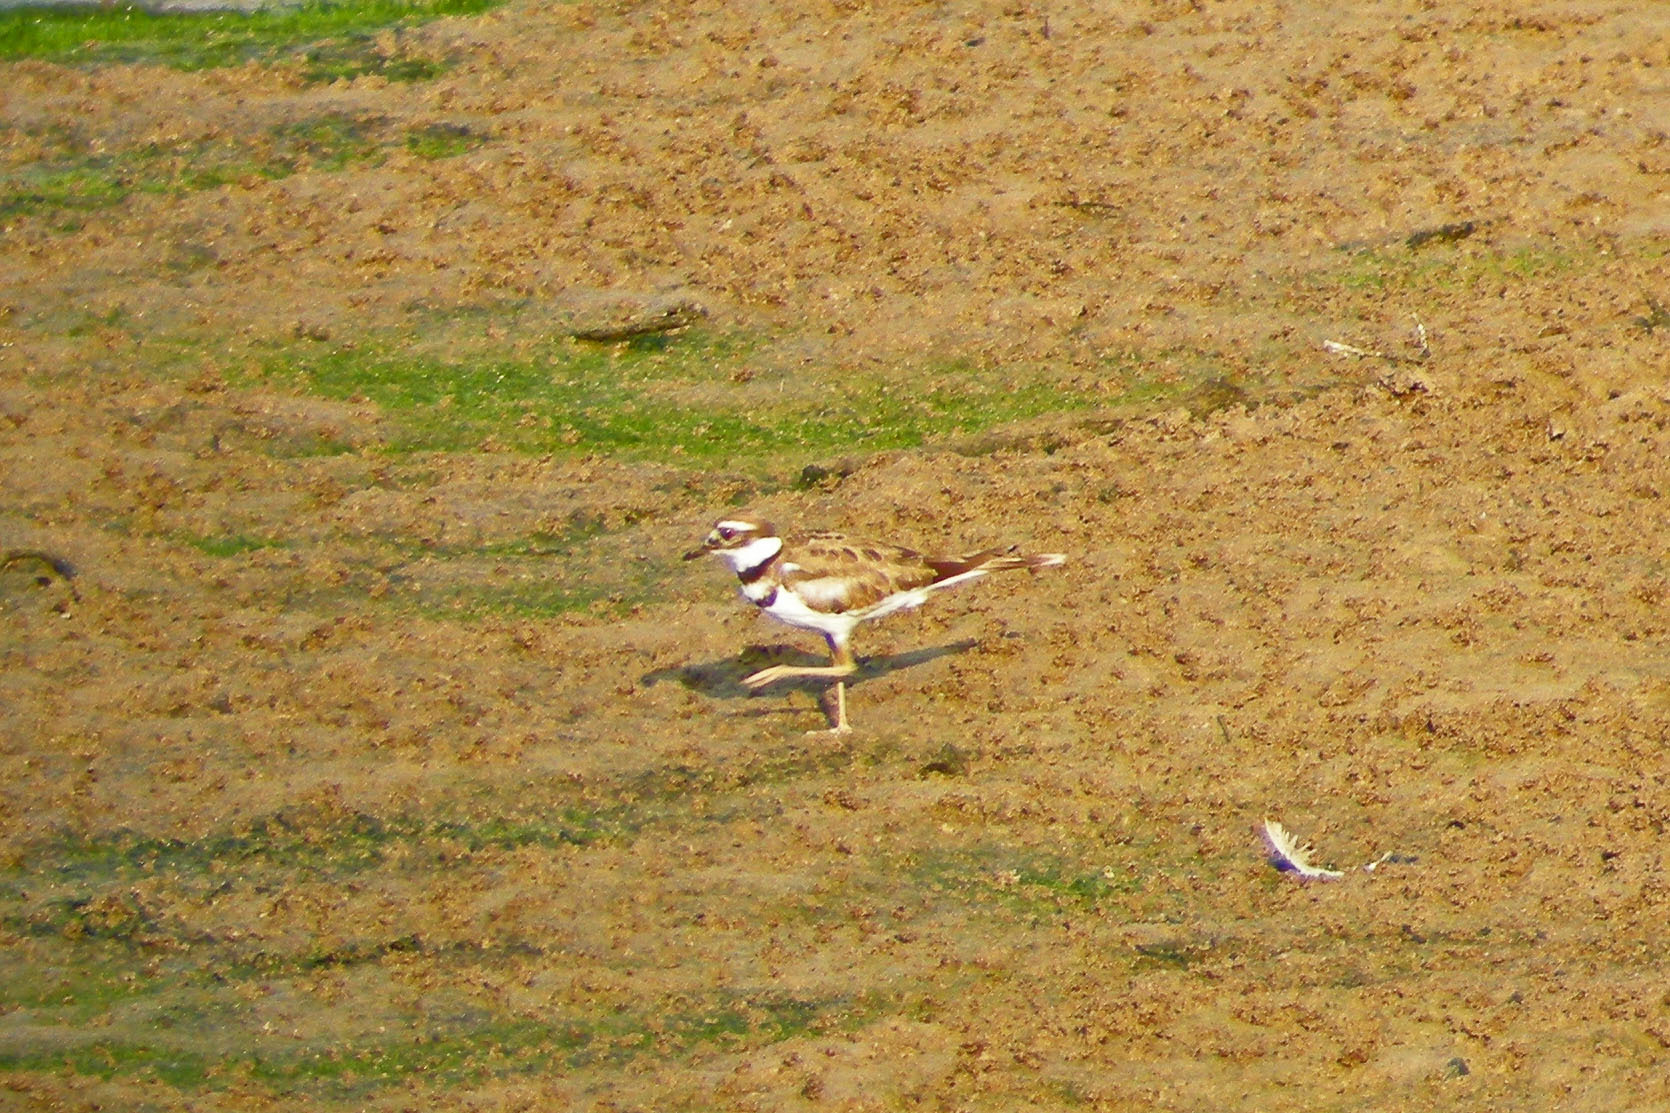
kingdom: Animalia
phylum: Chordata
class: Aves
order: Charadriiformes
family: Charadriidae
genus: Charadrius
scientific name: Charadrius vociferus
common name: Killdeer
